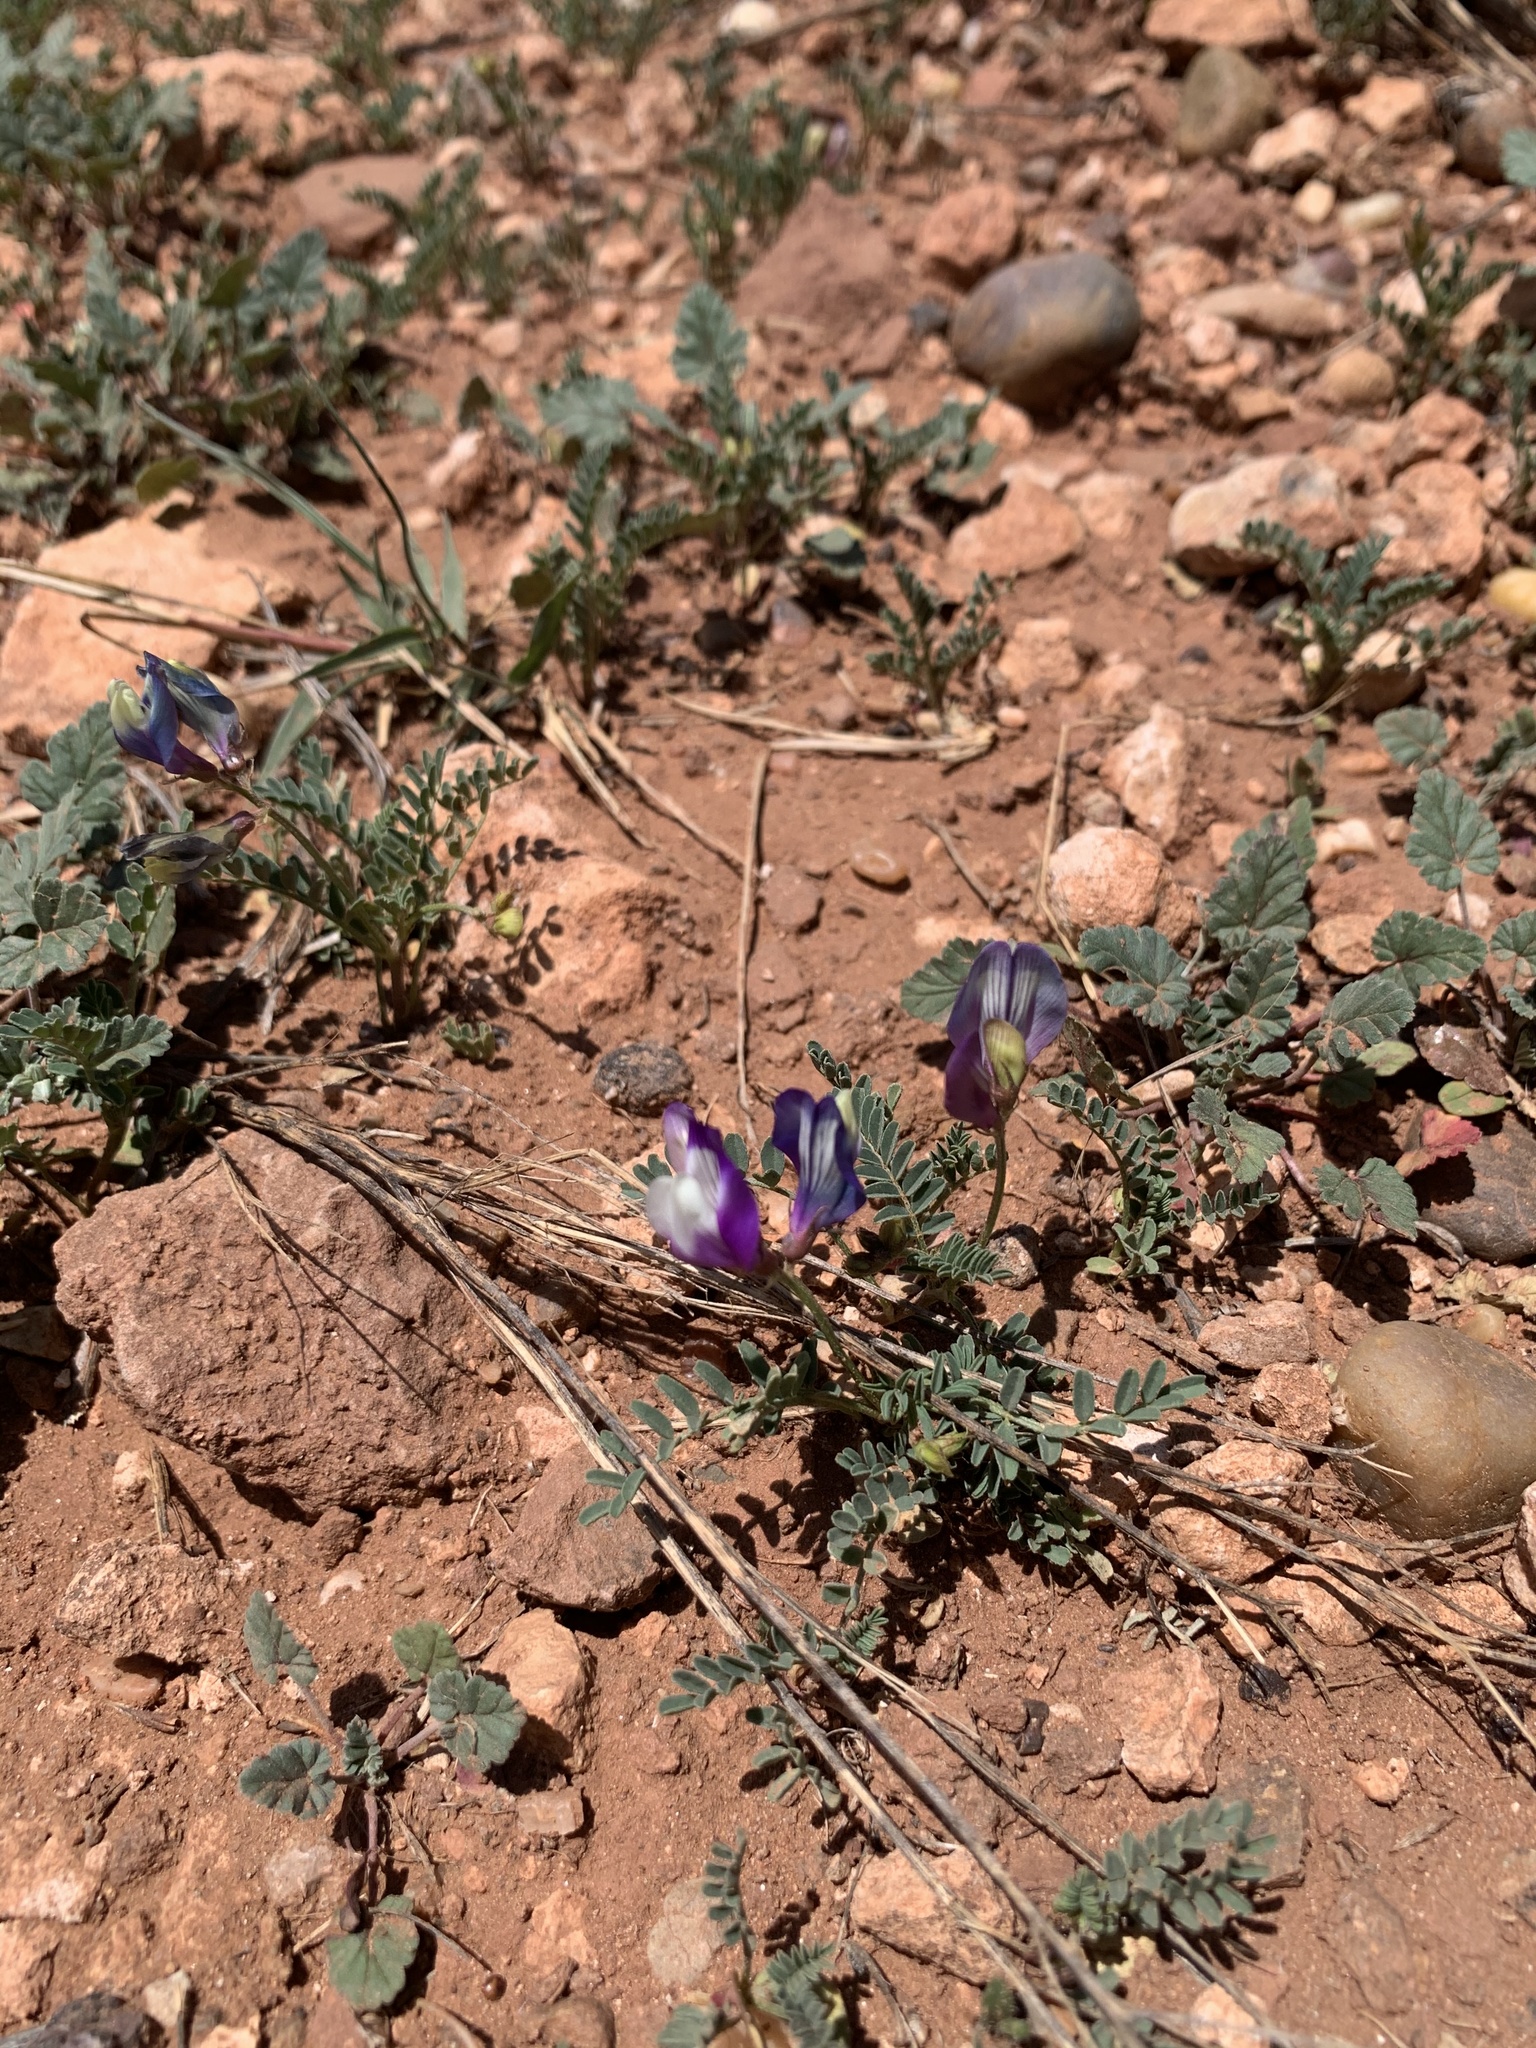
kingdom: Plantae
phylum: Tracheophyta
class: Magnoliopsida
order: Fabales
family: Fabaceae
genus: Astragalus
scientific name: Astragalus lindheimeri
